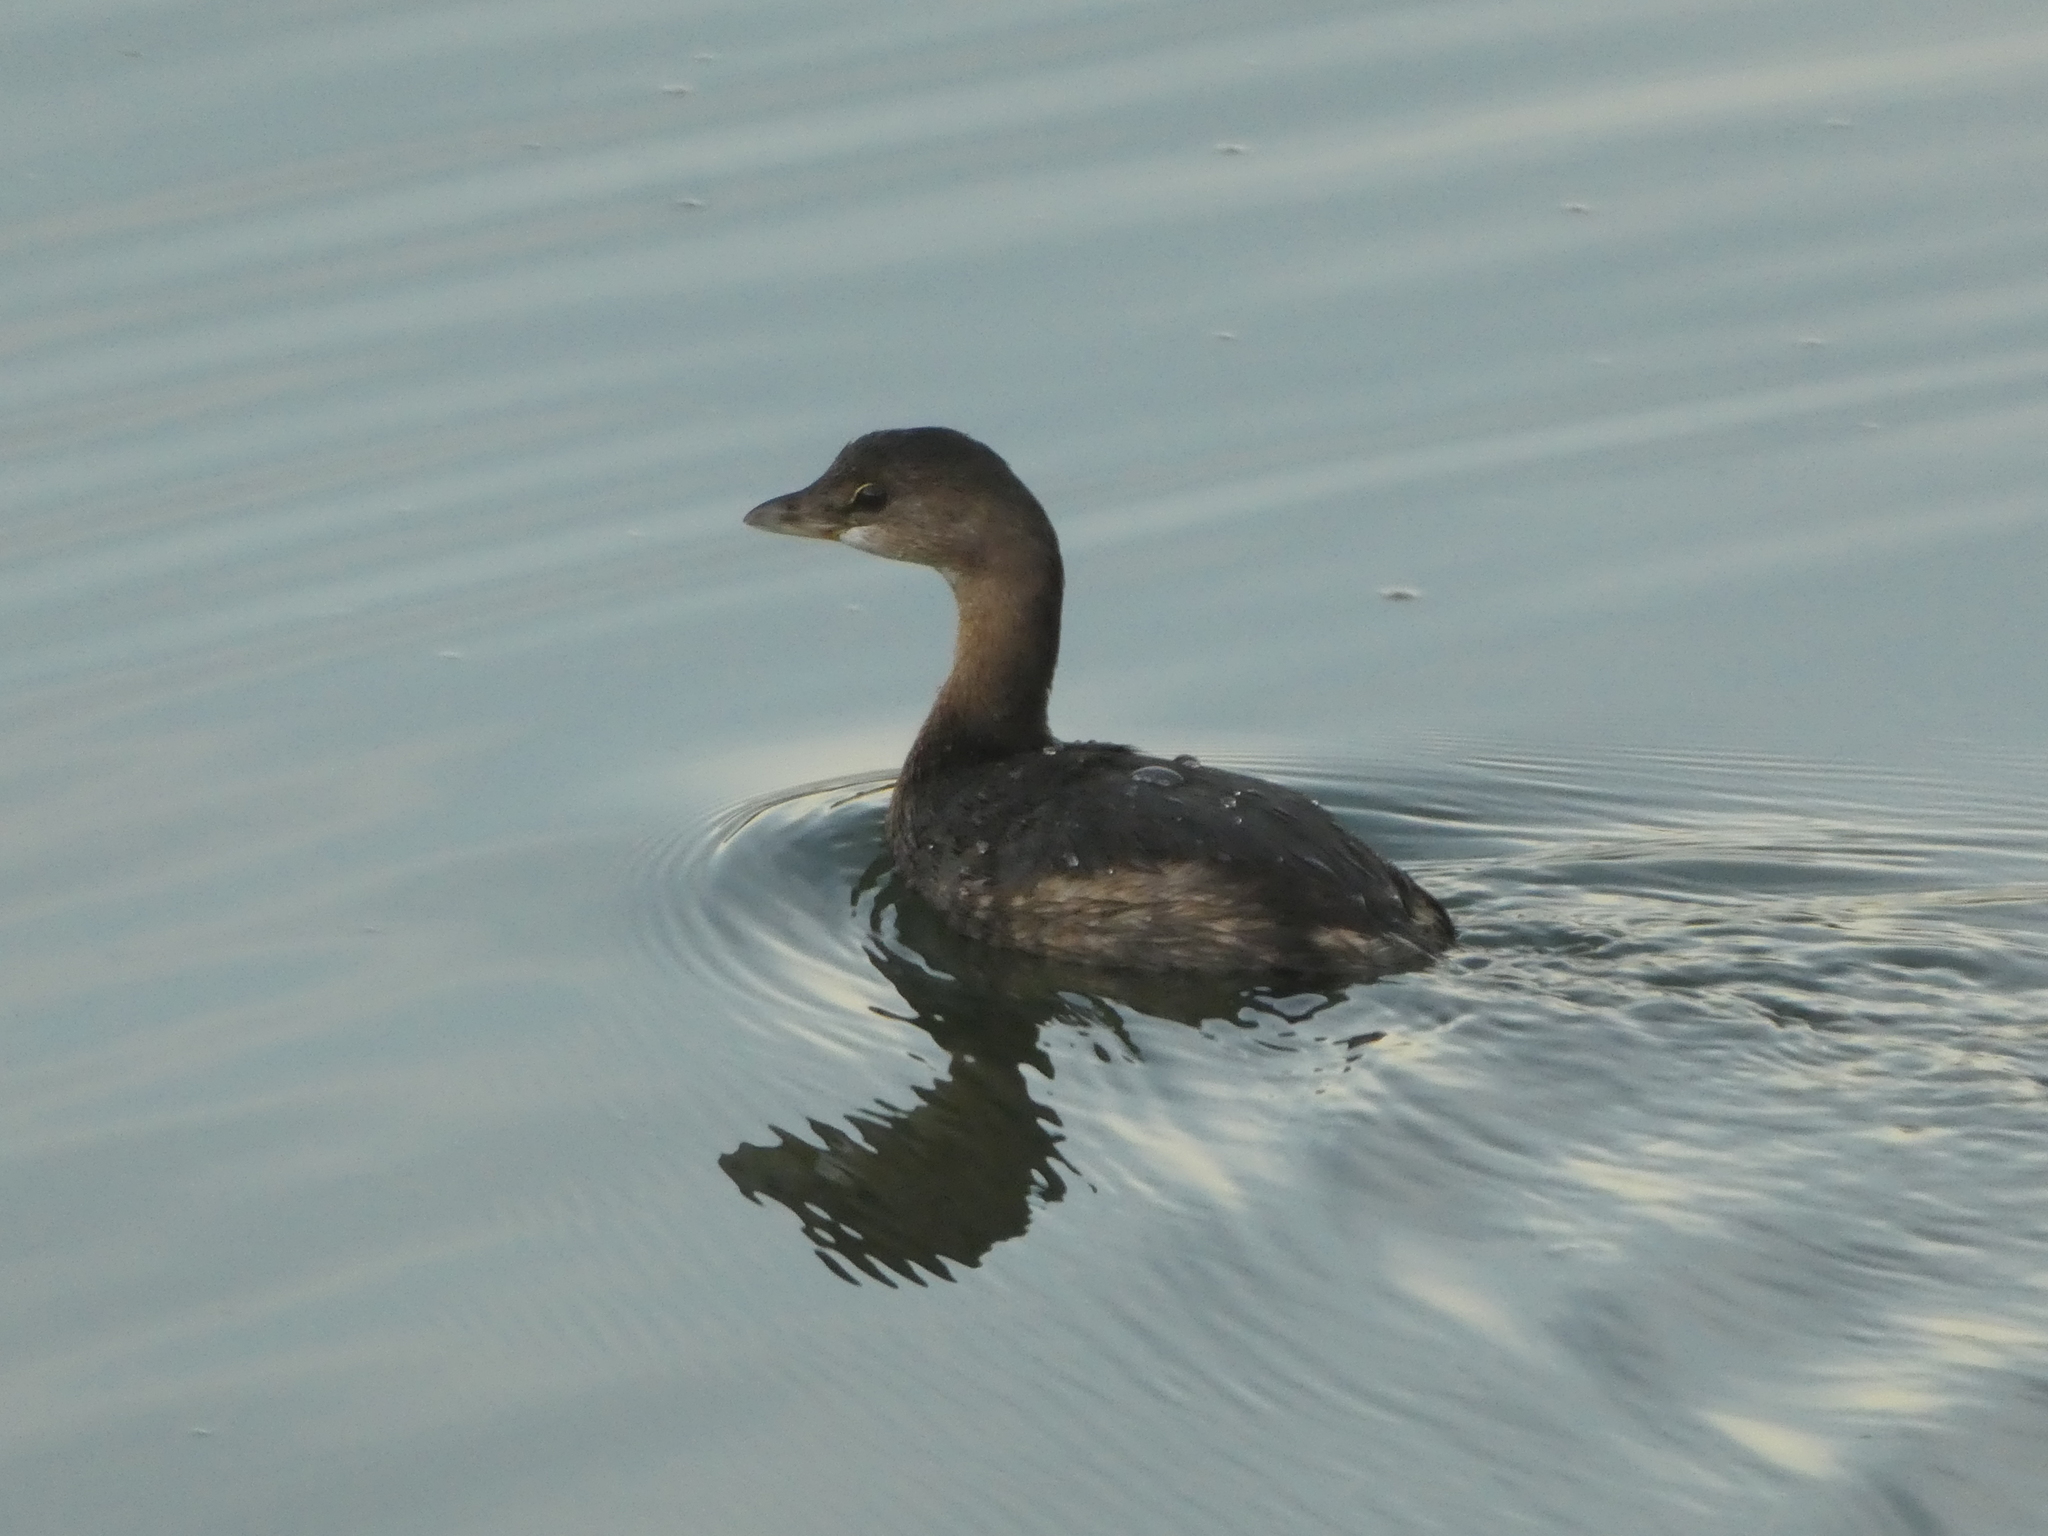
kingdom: Animalia
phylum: Chordata
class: Aves
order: Podicipediformes
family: Podicipedidae
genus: Podilymbus
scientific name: Podilymbus podiceps
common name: Pied-billed grebe
